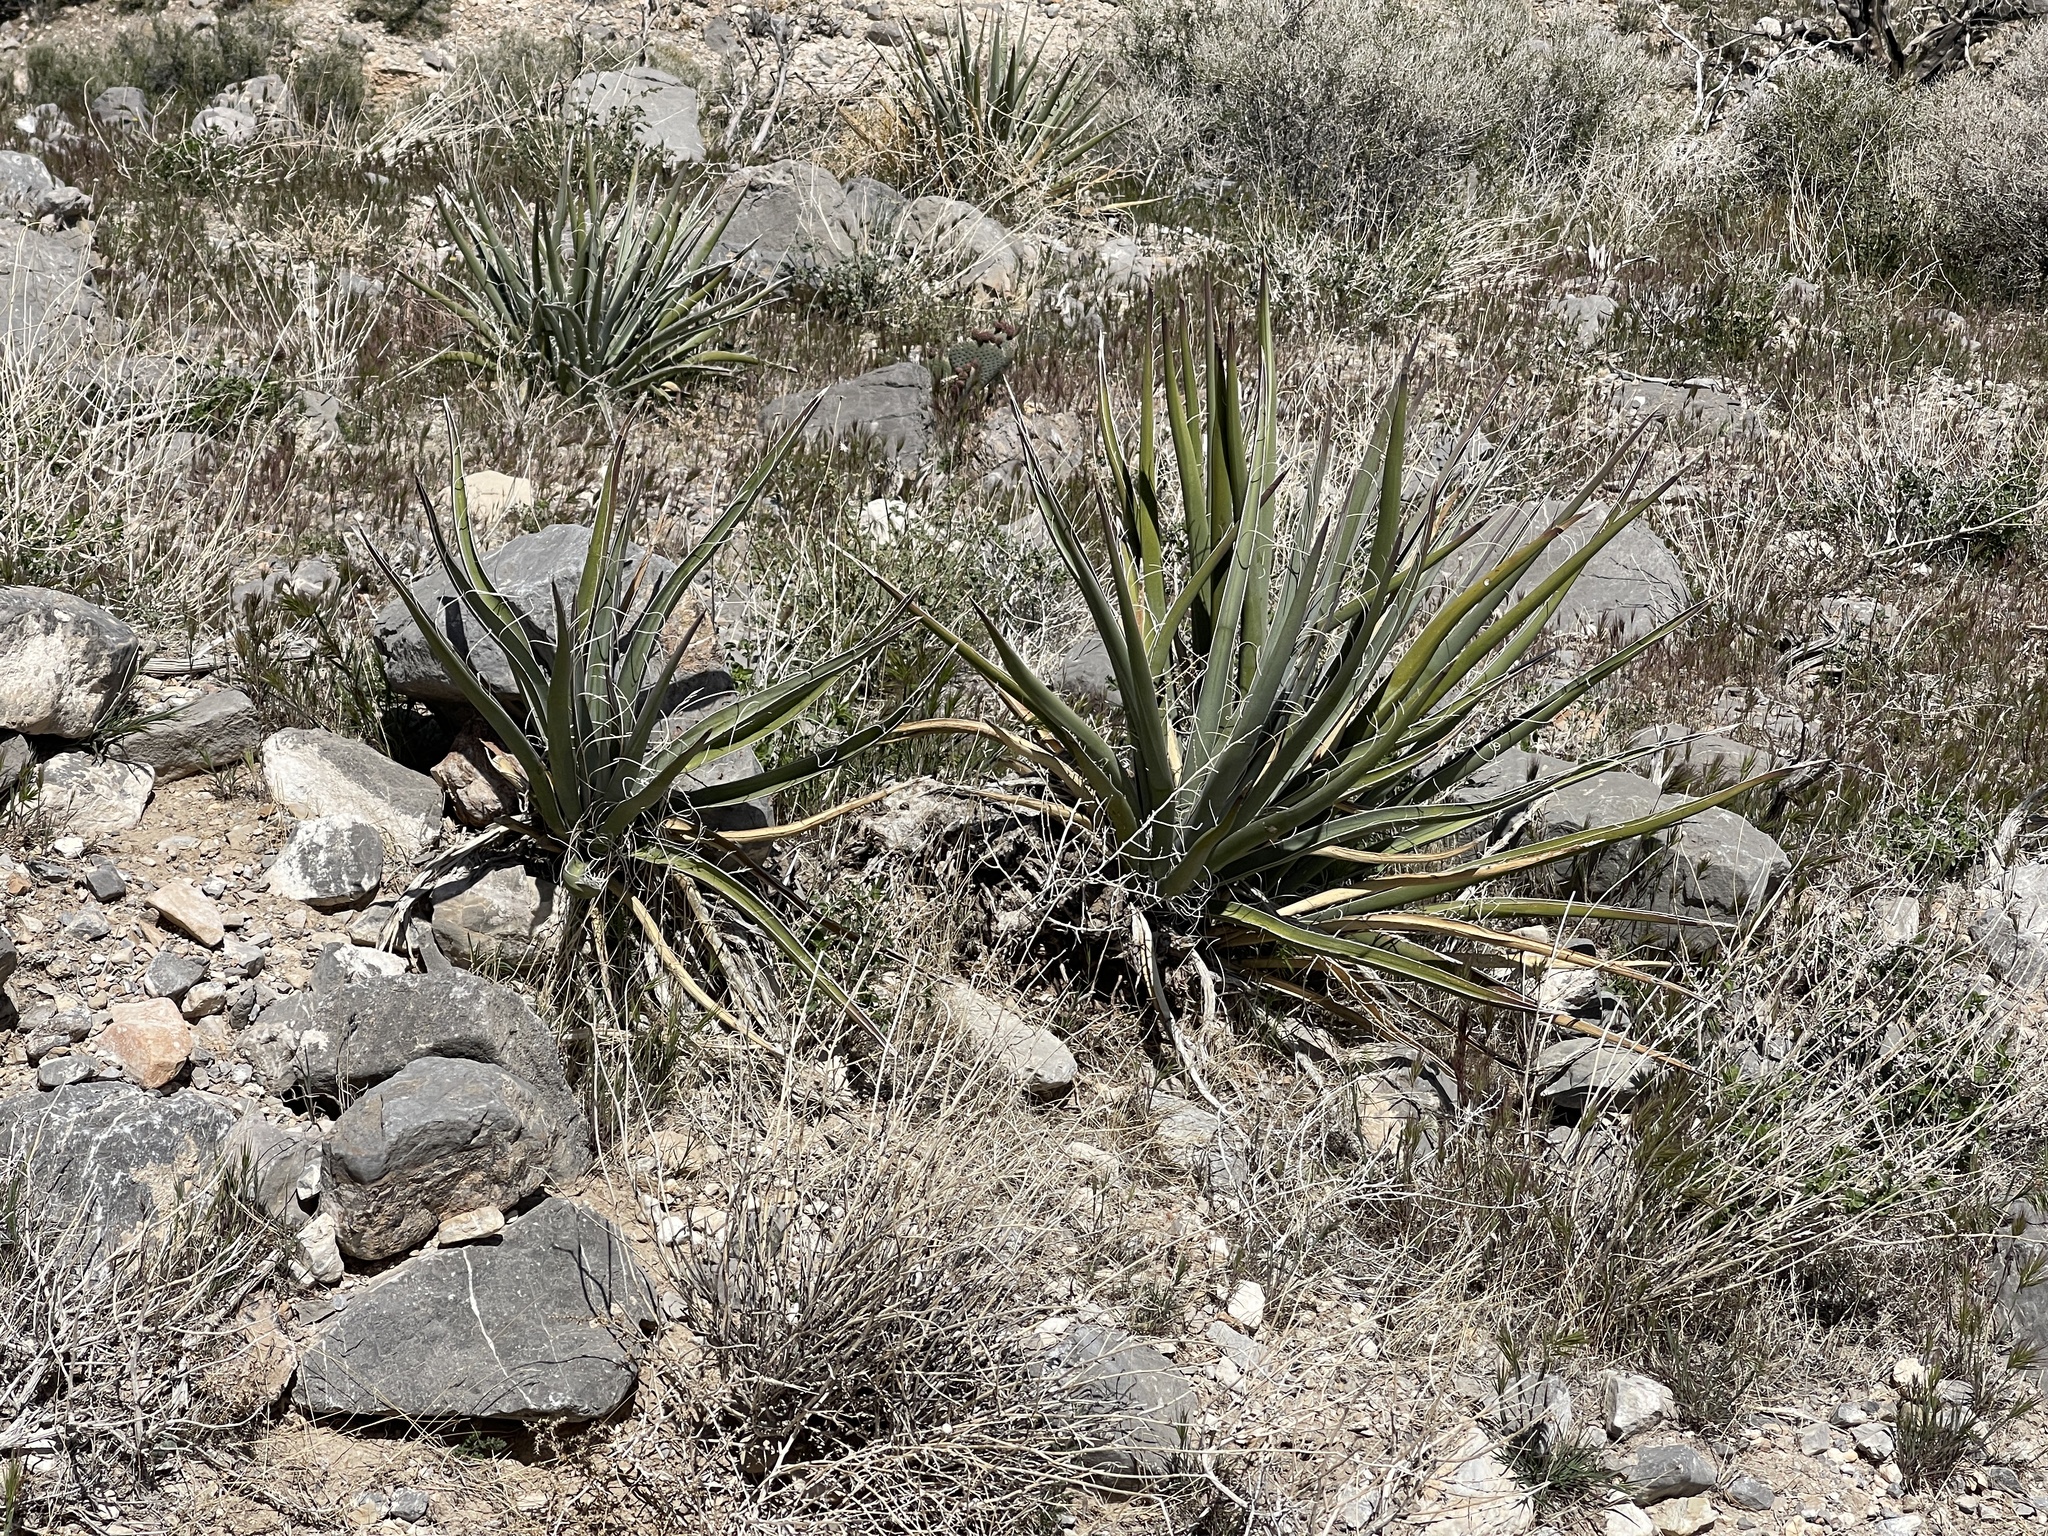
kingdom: Plantae
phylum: Tracheophyta
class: Liliopsida
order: Asparagales
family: Asparagaceae
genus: Yucca
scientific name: Yucca baccata
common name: Banana yucca
